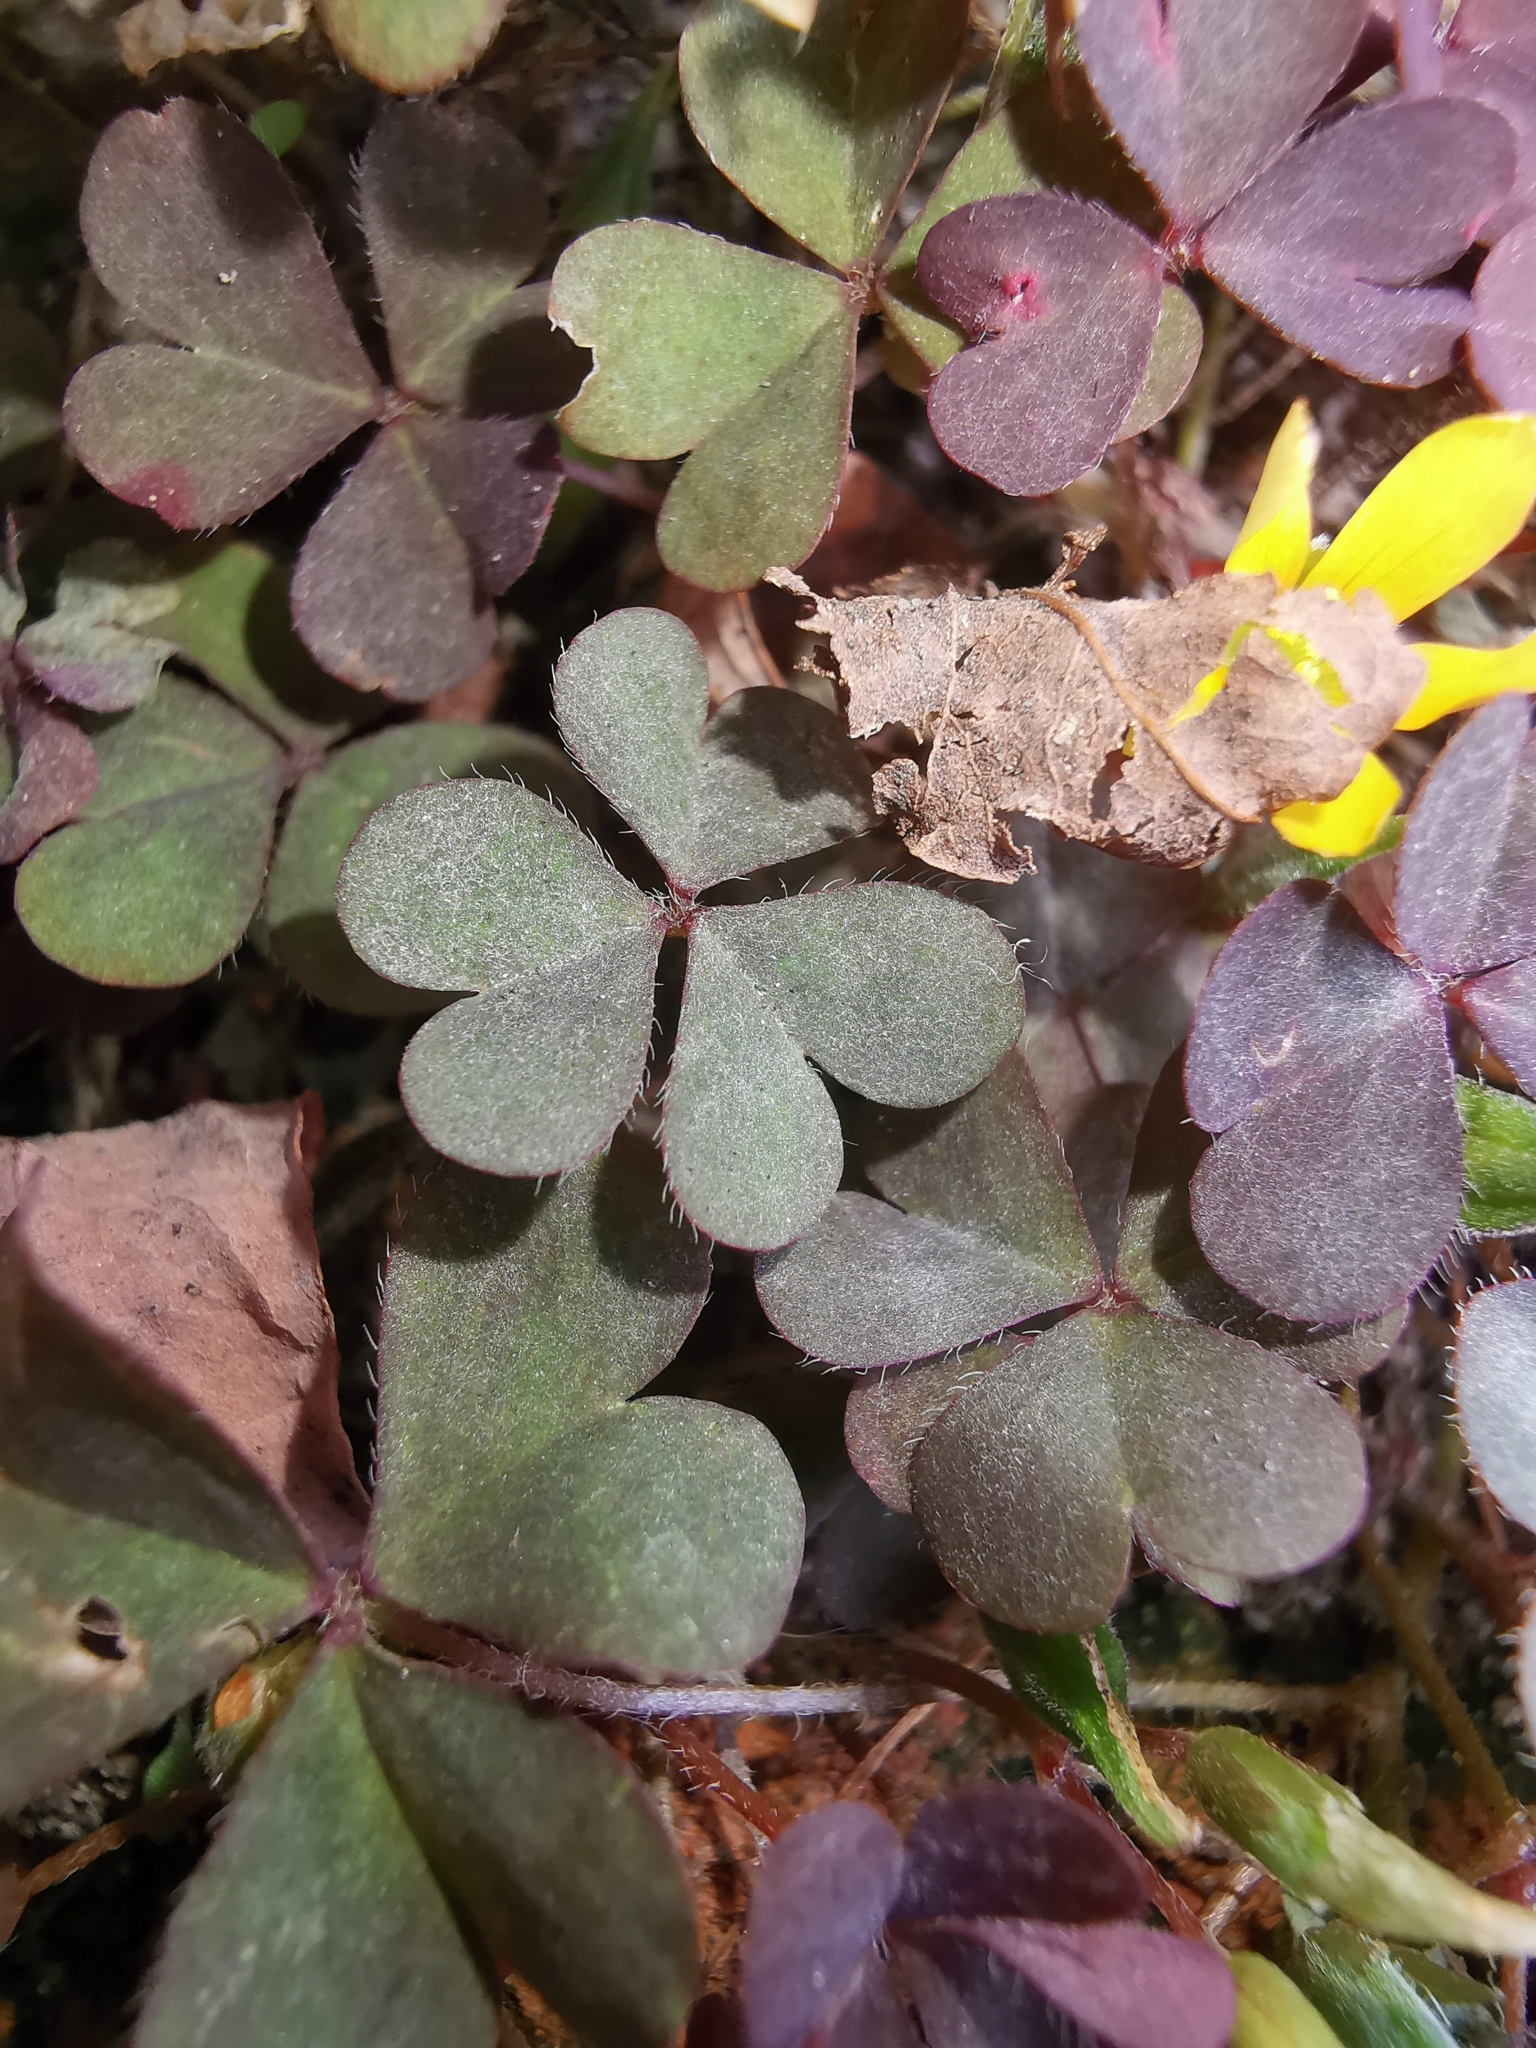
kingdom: Fungi
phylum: Ascomycota
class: Leotiomycetes
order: Helotiales
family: Erysiphaceae
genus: Erysiphe
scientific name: Erysiphe russellii
